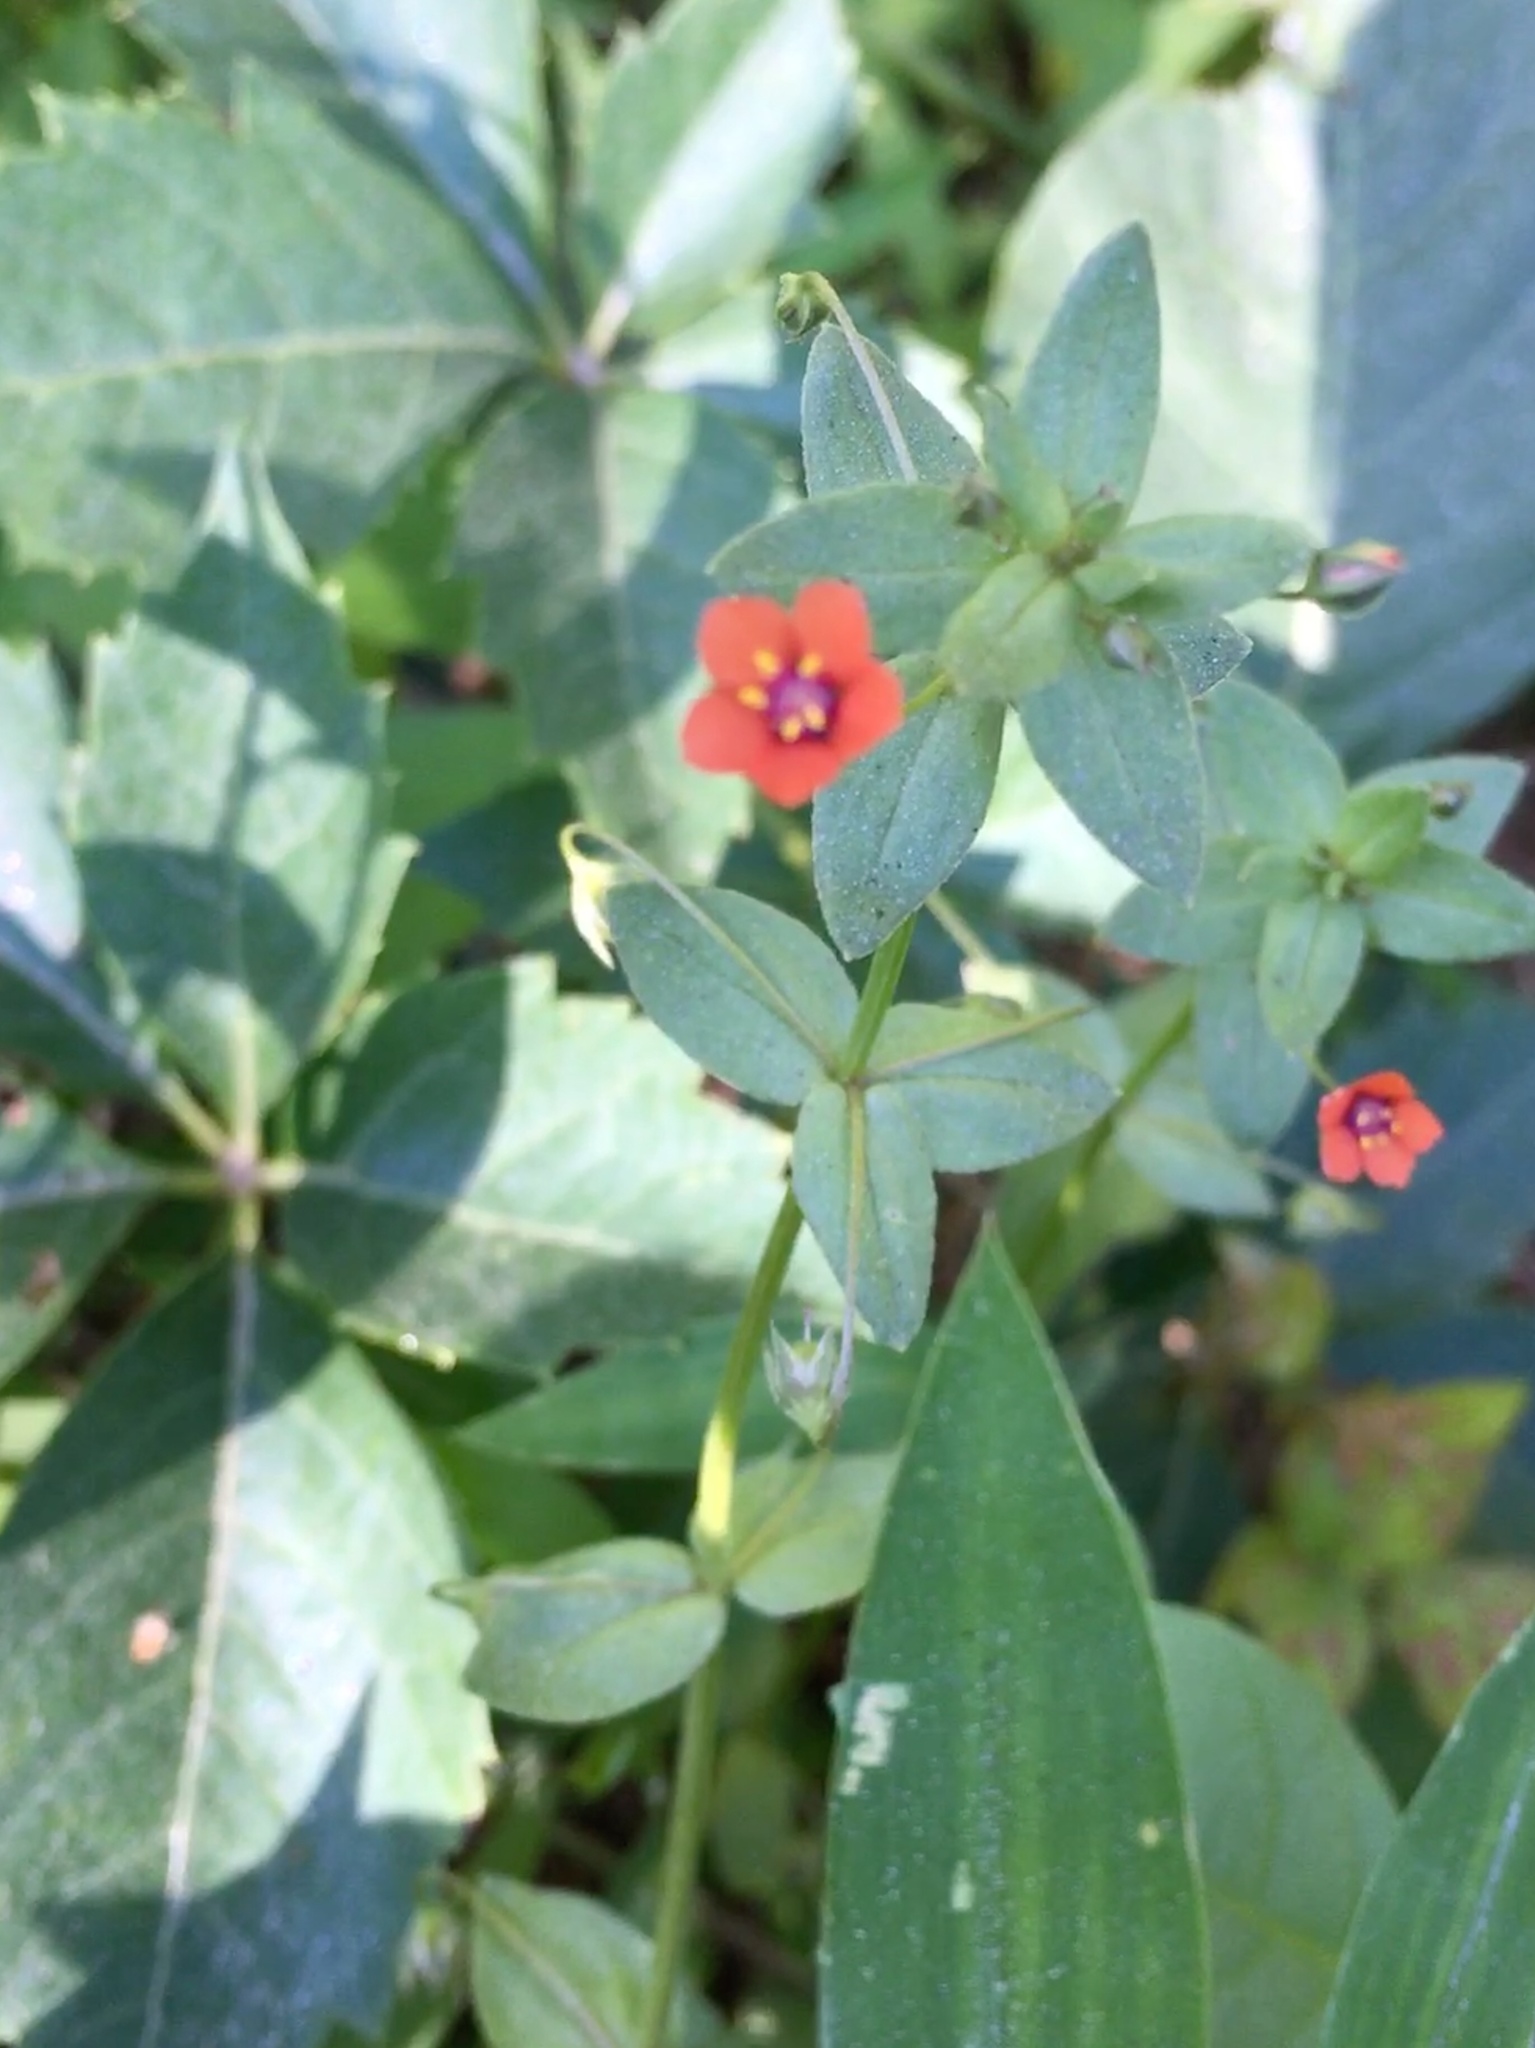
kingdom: Plantae
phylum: Tracheophyta
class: Magnoliopsida
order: Ericales
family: Primulaceae
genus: Lysimachia
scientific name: Lysimachia arvensis
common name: Scarlet pimpernel
